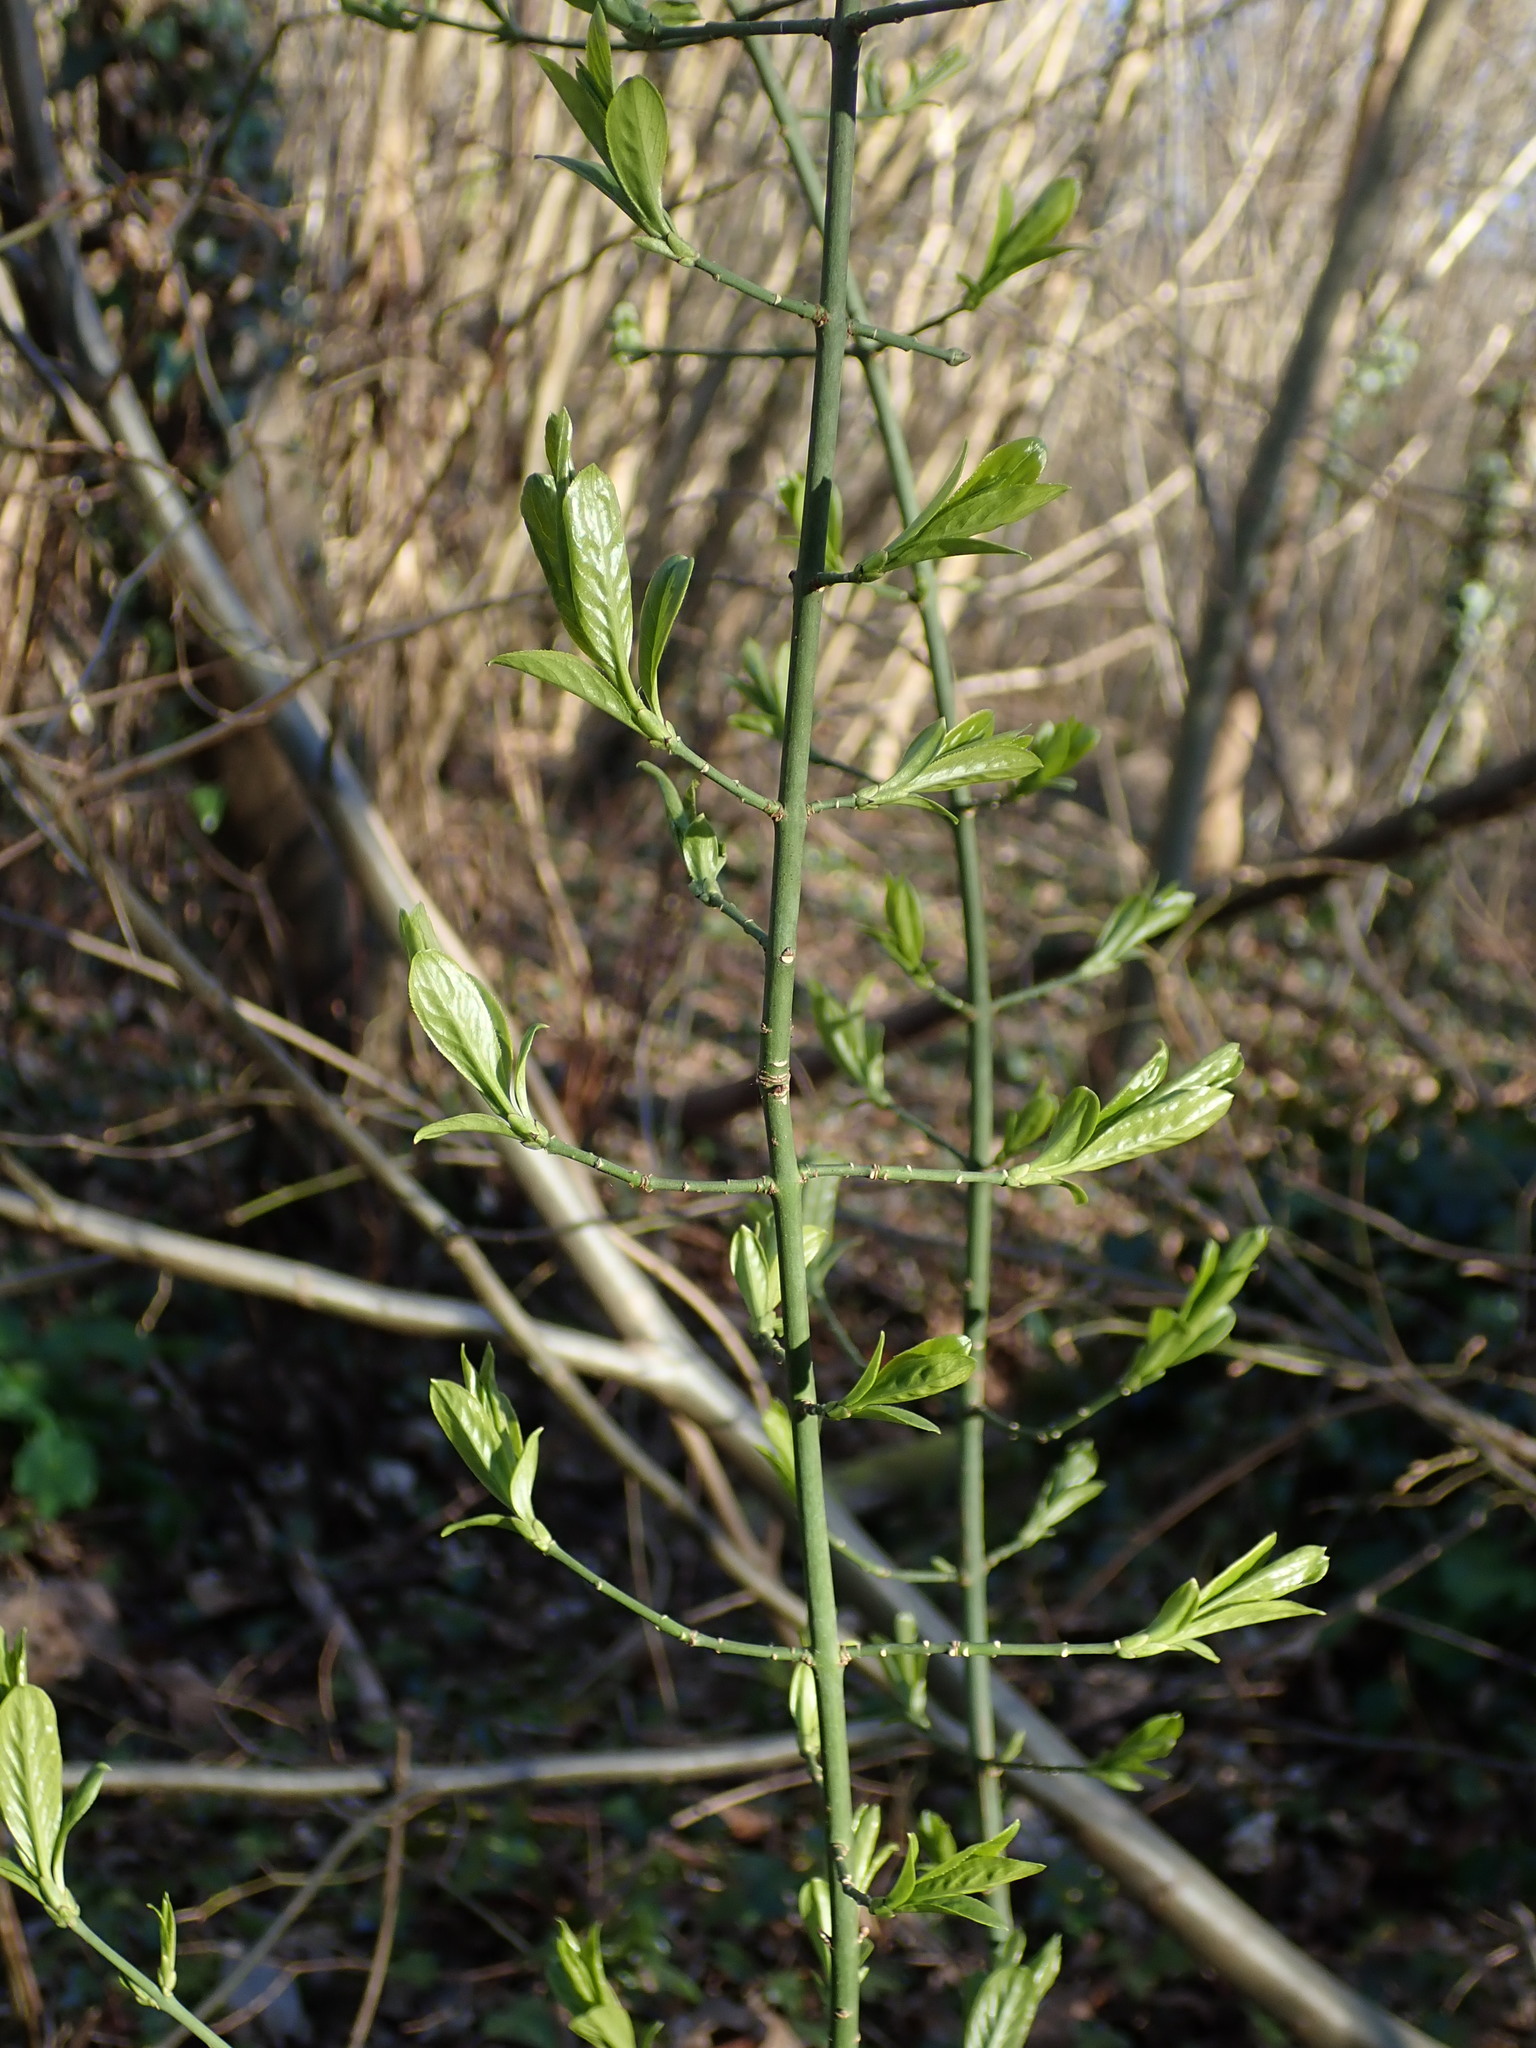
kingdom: Plantae
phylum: Tracheophyta
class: Magnoliopsida
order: Celastrales
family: Celastraceae
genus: Euonymus
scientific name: Euonymus europaeus
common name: Spindle
